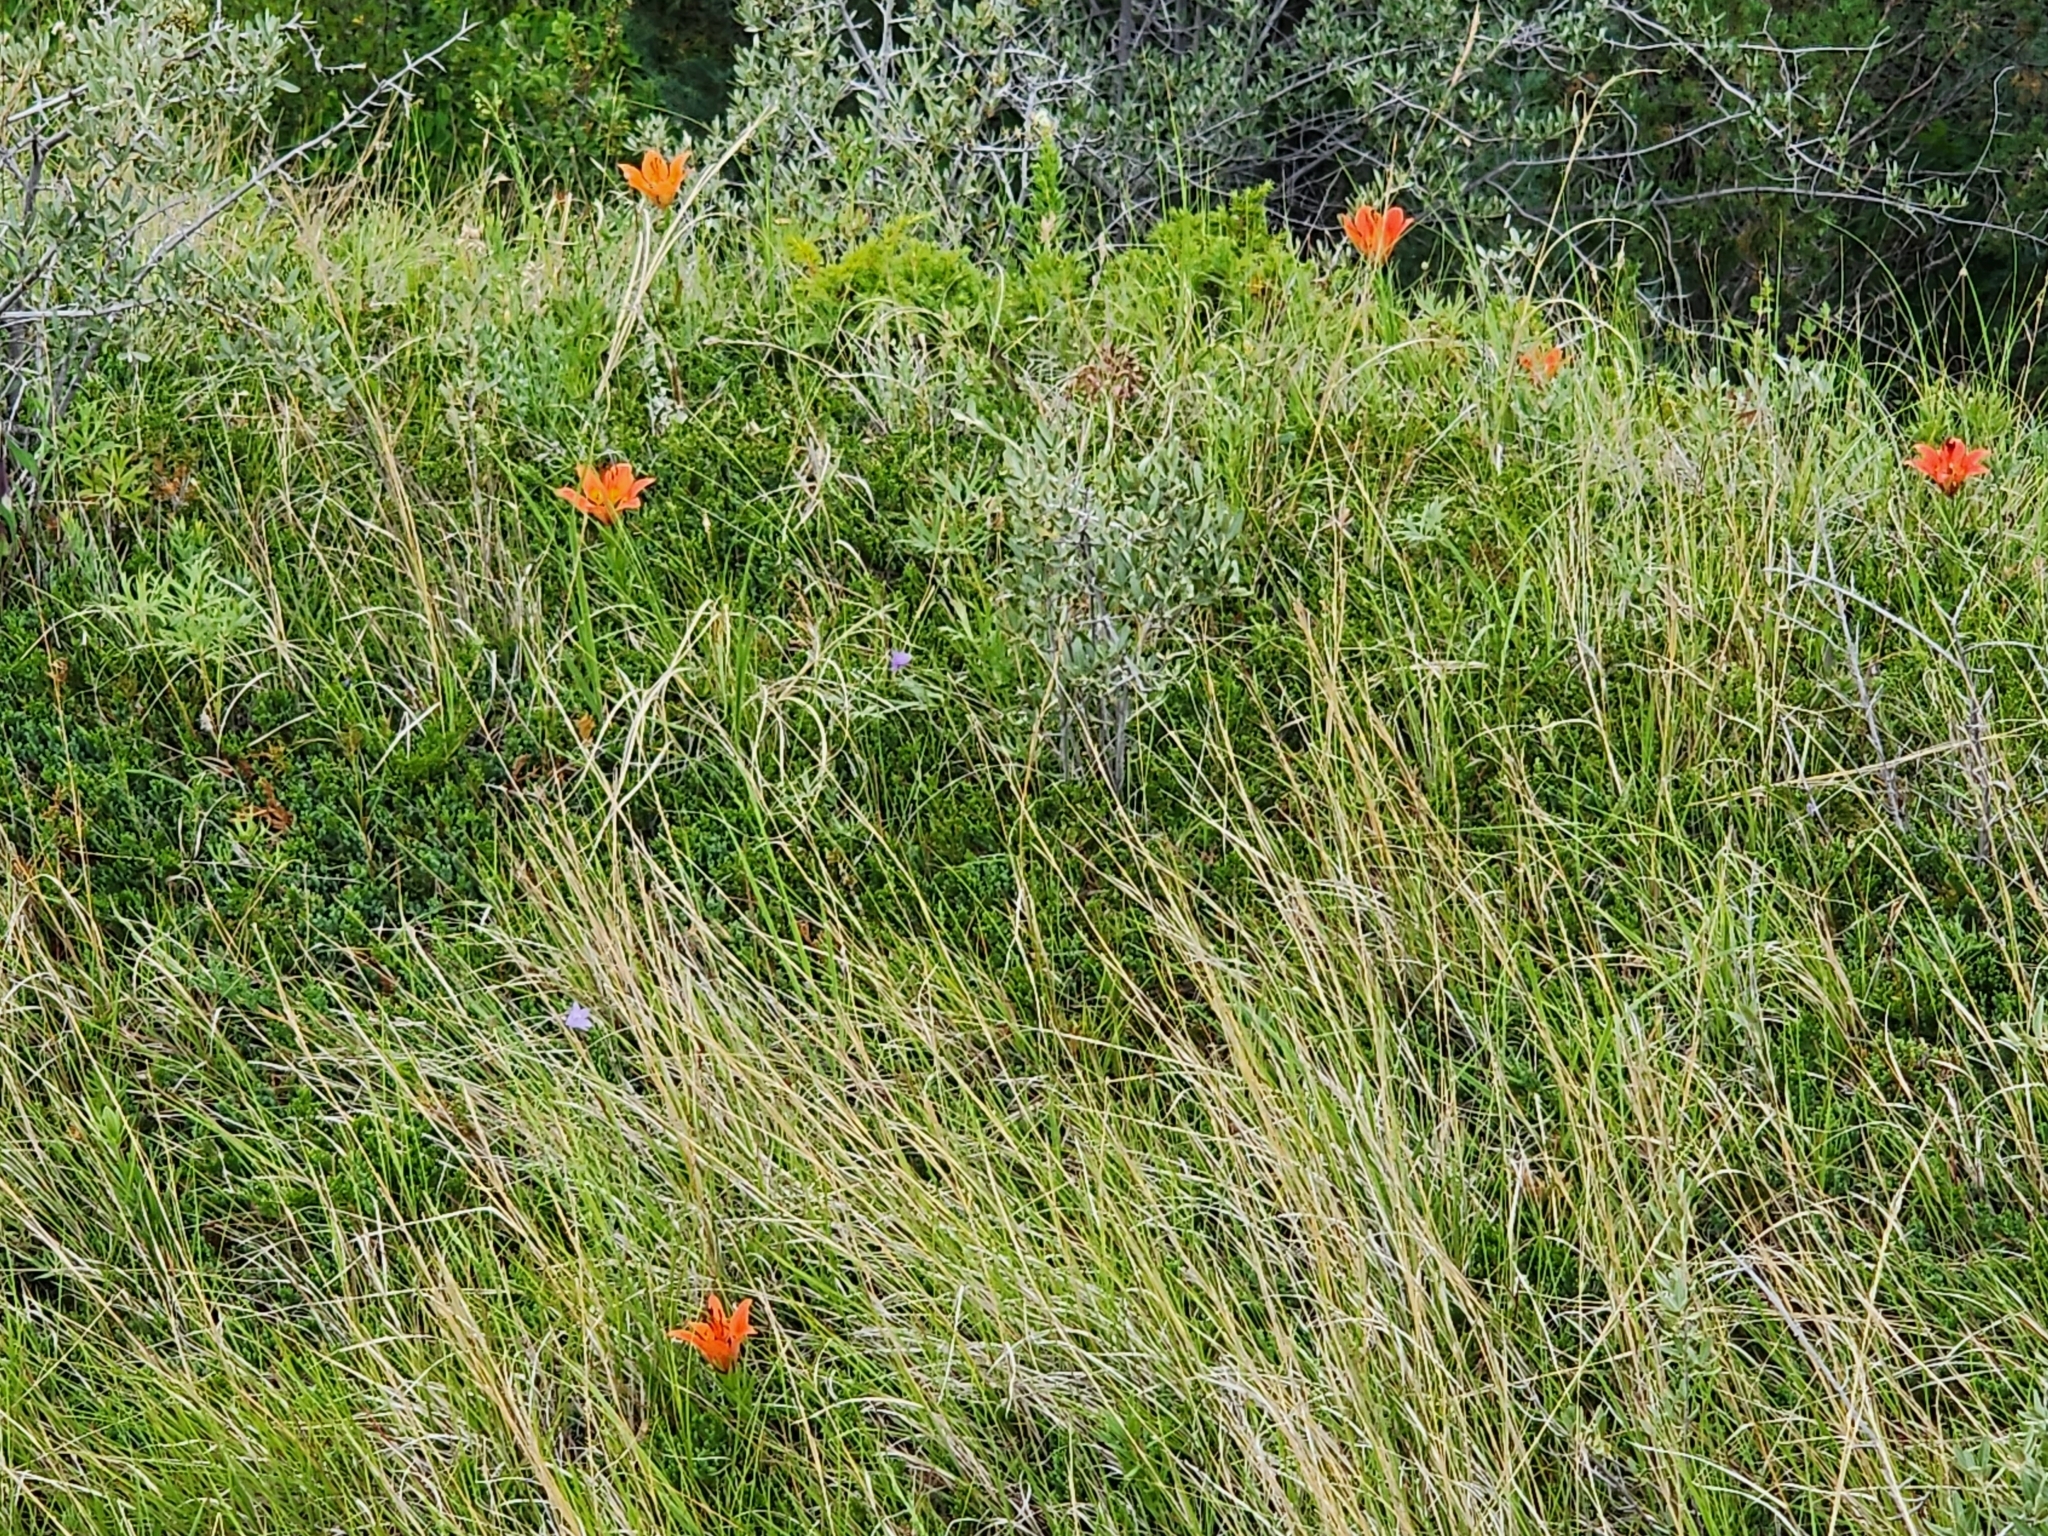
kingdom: Plantae
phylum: Tracheophyta
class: Liliopsida
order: Liliales
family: Liliaceae
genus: Lilium
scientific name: Lilium philadelphicum
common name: Red lily
